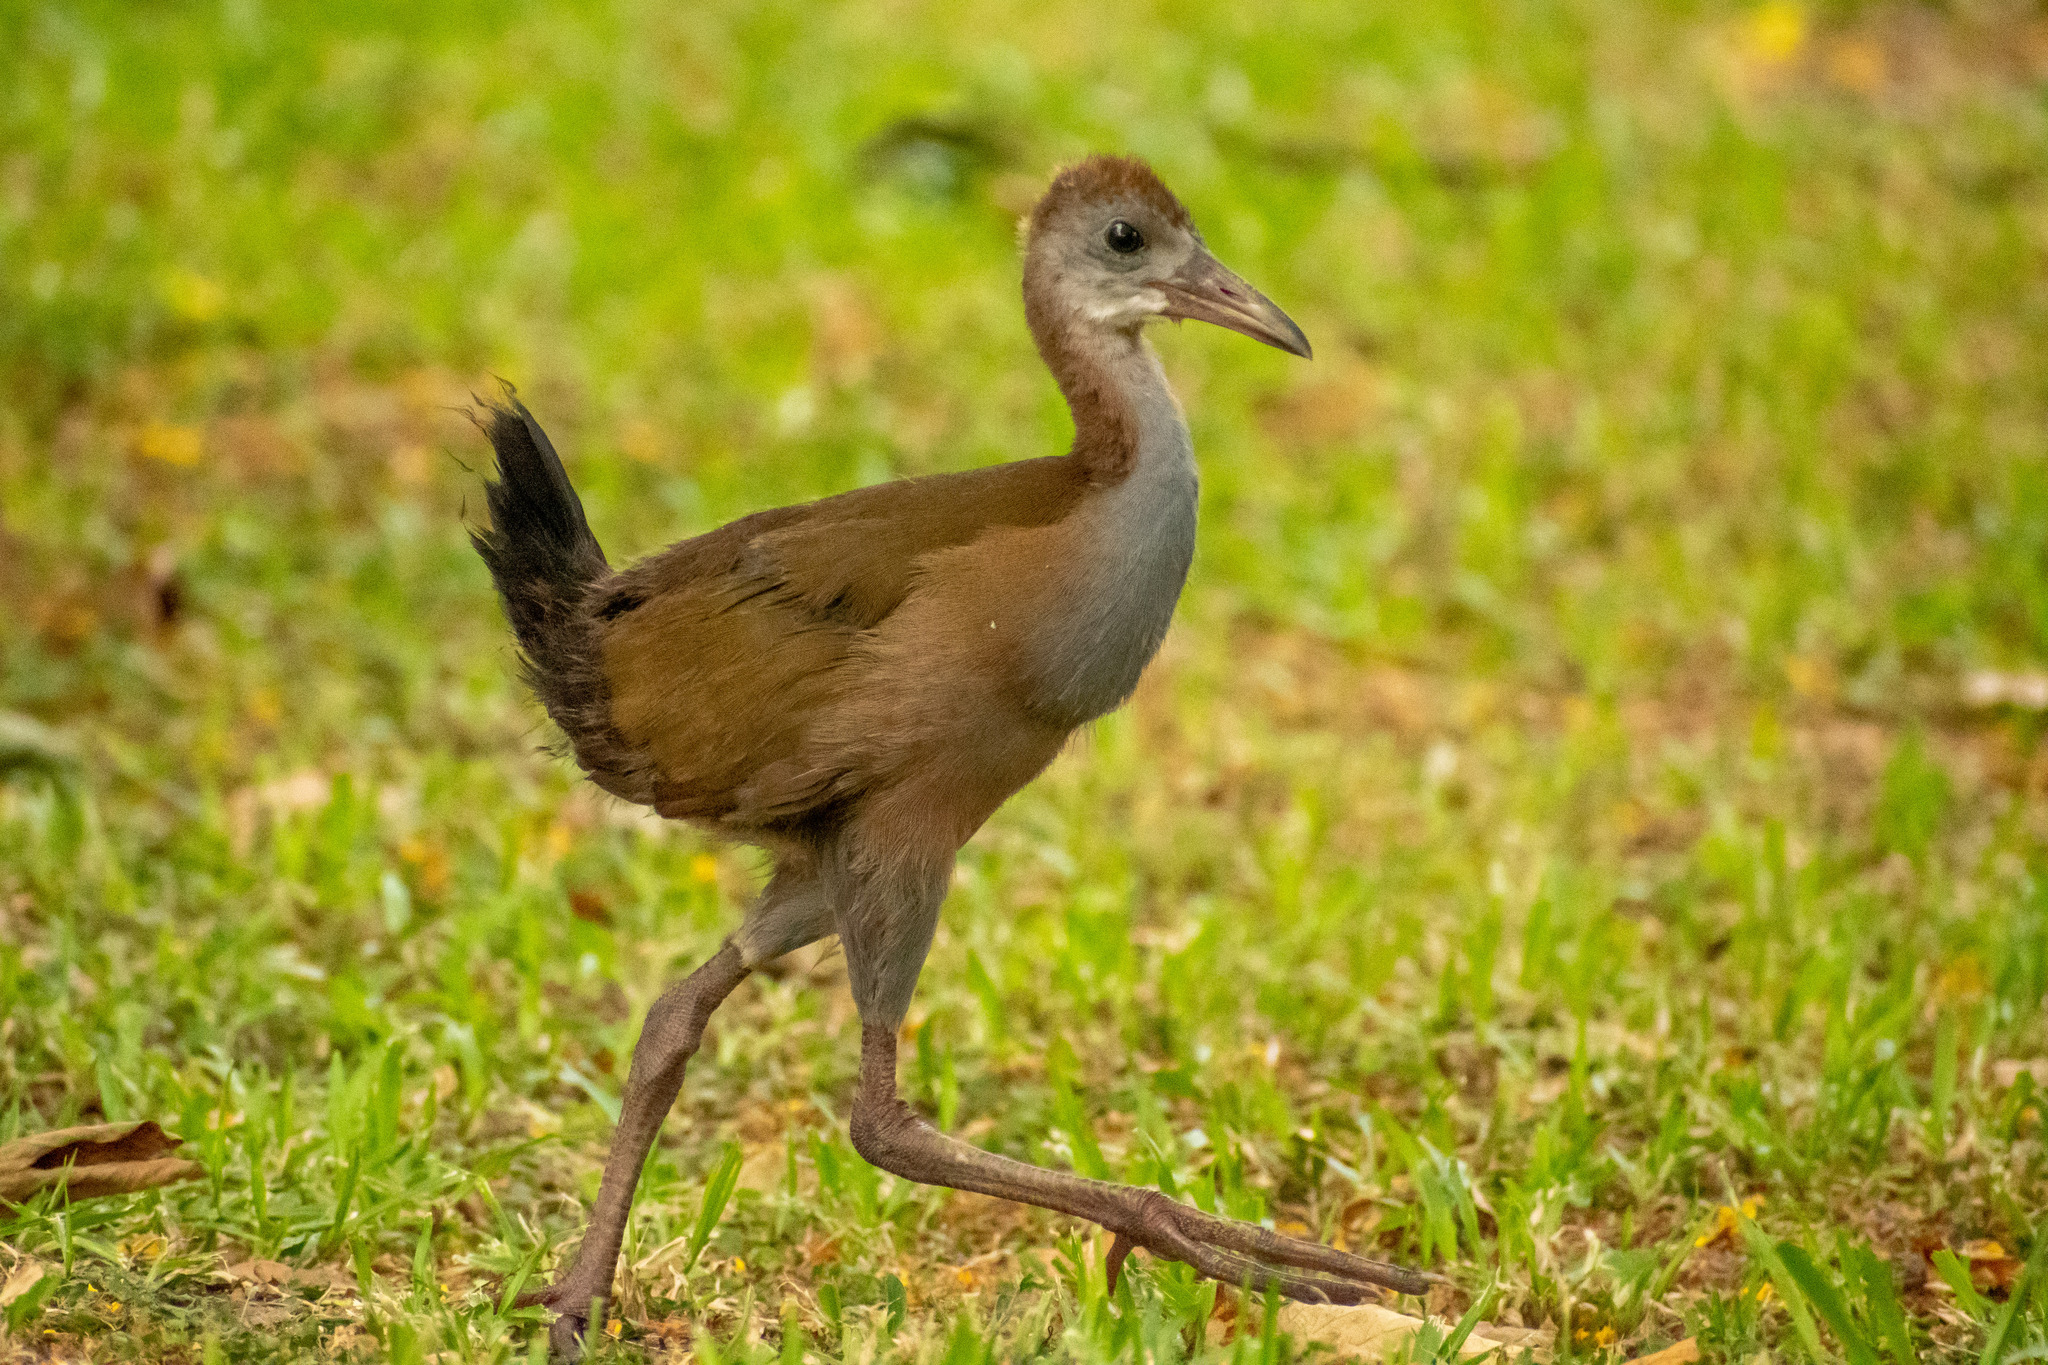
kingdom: Animalia
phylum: Chordata
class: Aves
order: Gruiformes
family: Rallidae
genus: Aramides
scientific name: Aramides ypecaha
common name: Giant wood rail
